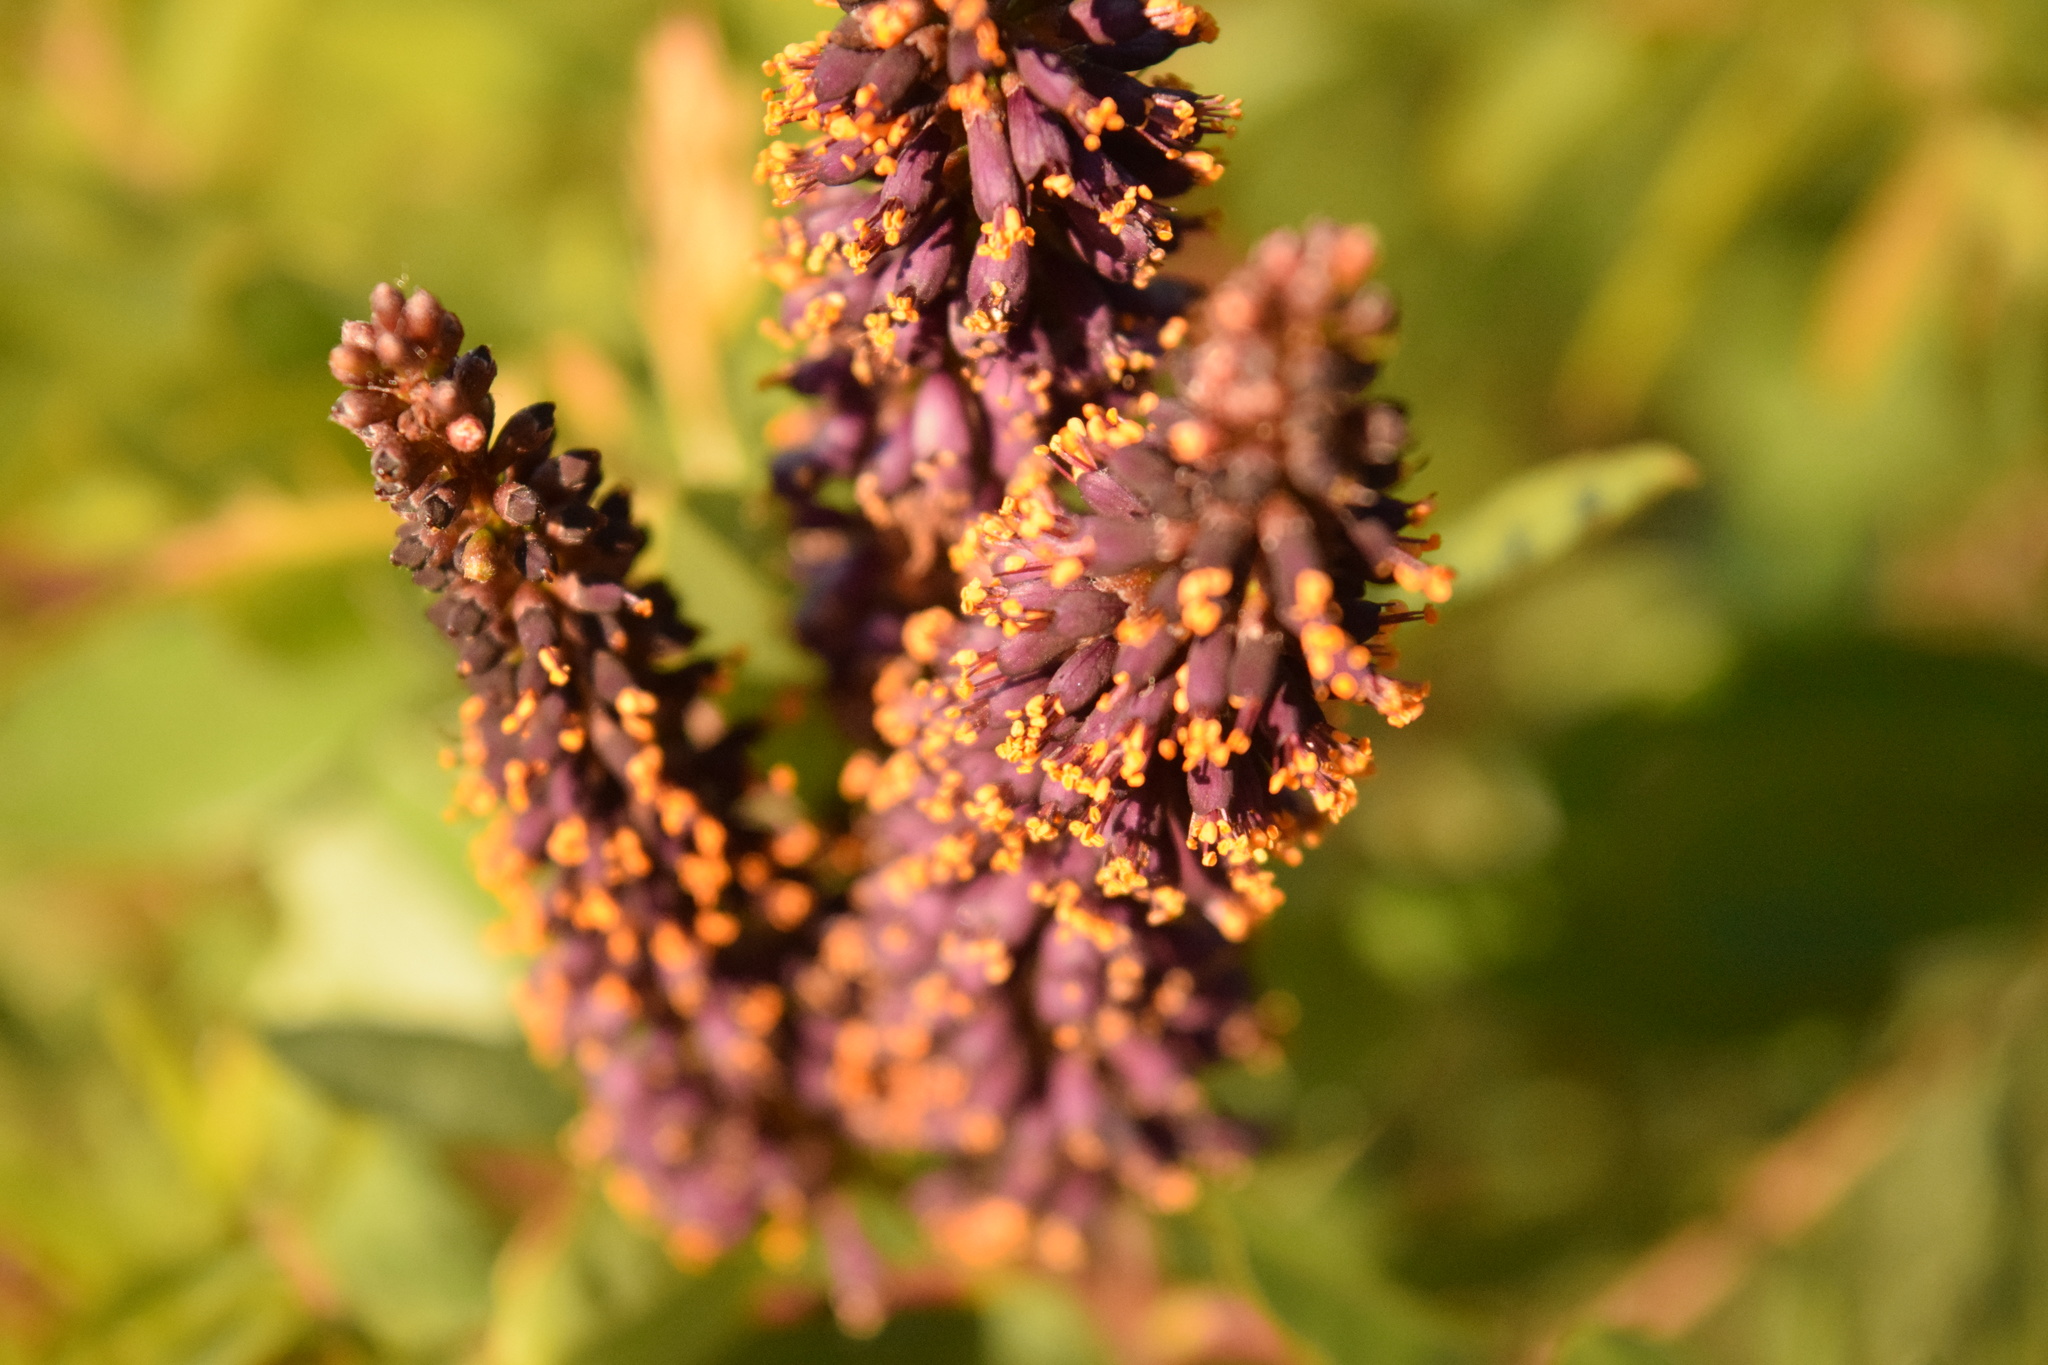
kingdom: Plantae
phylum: Tracheophyta
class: Magnoliopsida
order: Fabales
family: Fabaceae
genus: Amorpha
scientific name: Amorpha fruticosa
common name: False indigo
